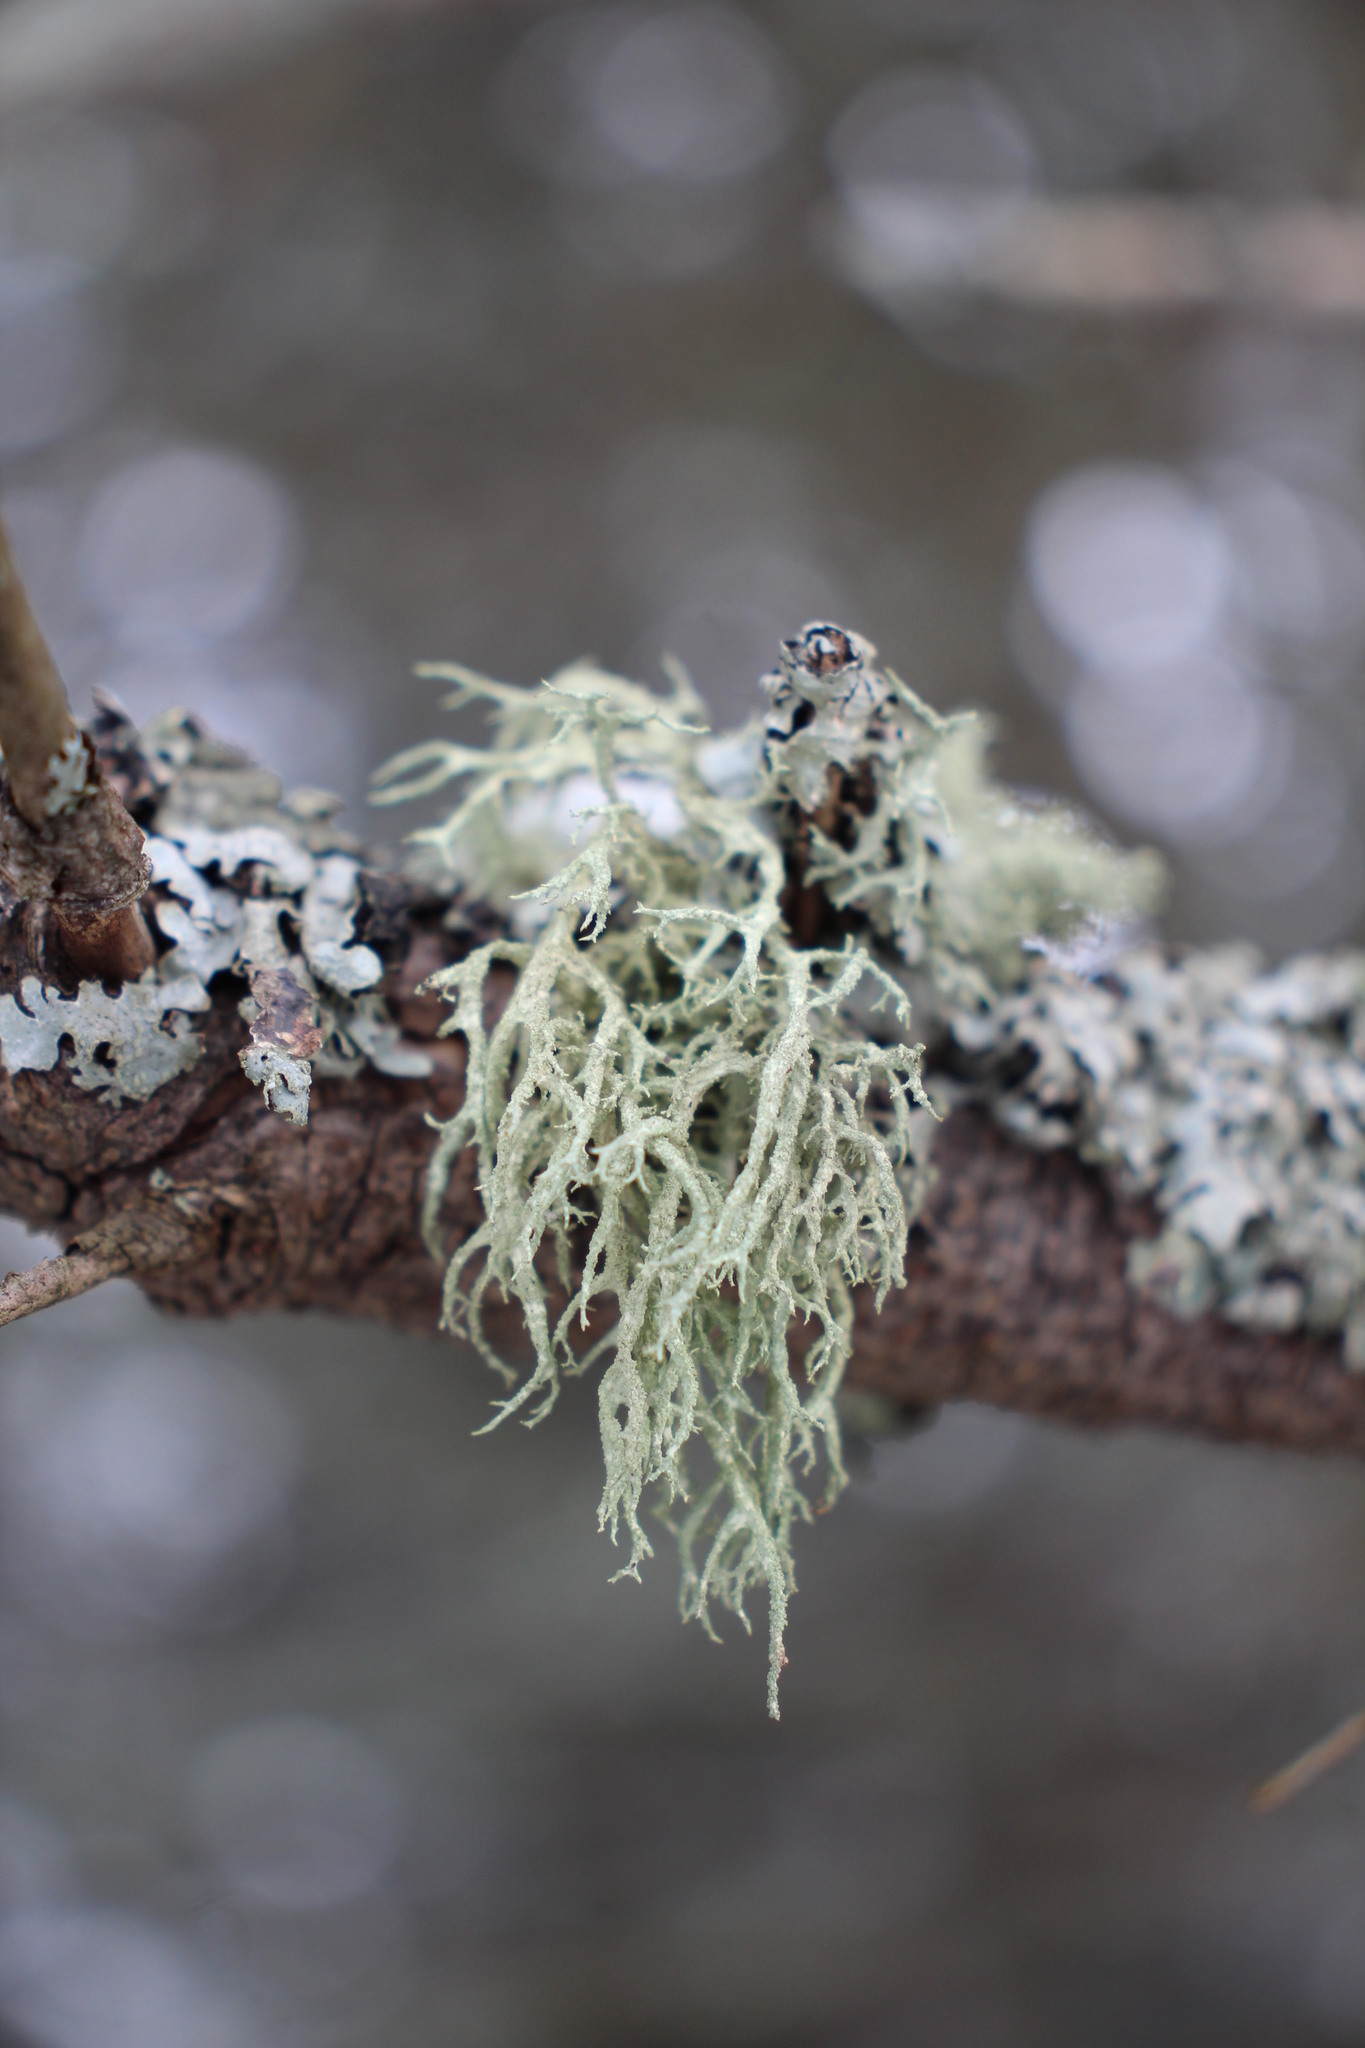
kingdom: Fungi
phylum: Ascomycota
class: Lecanoromycetes
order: Lecanorales
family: Parmeliaceae
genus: Evernia
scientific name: Evernia mesomorpha
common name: Boreal oak moss lichen
